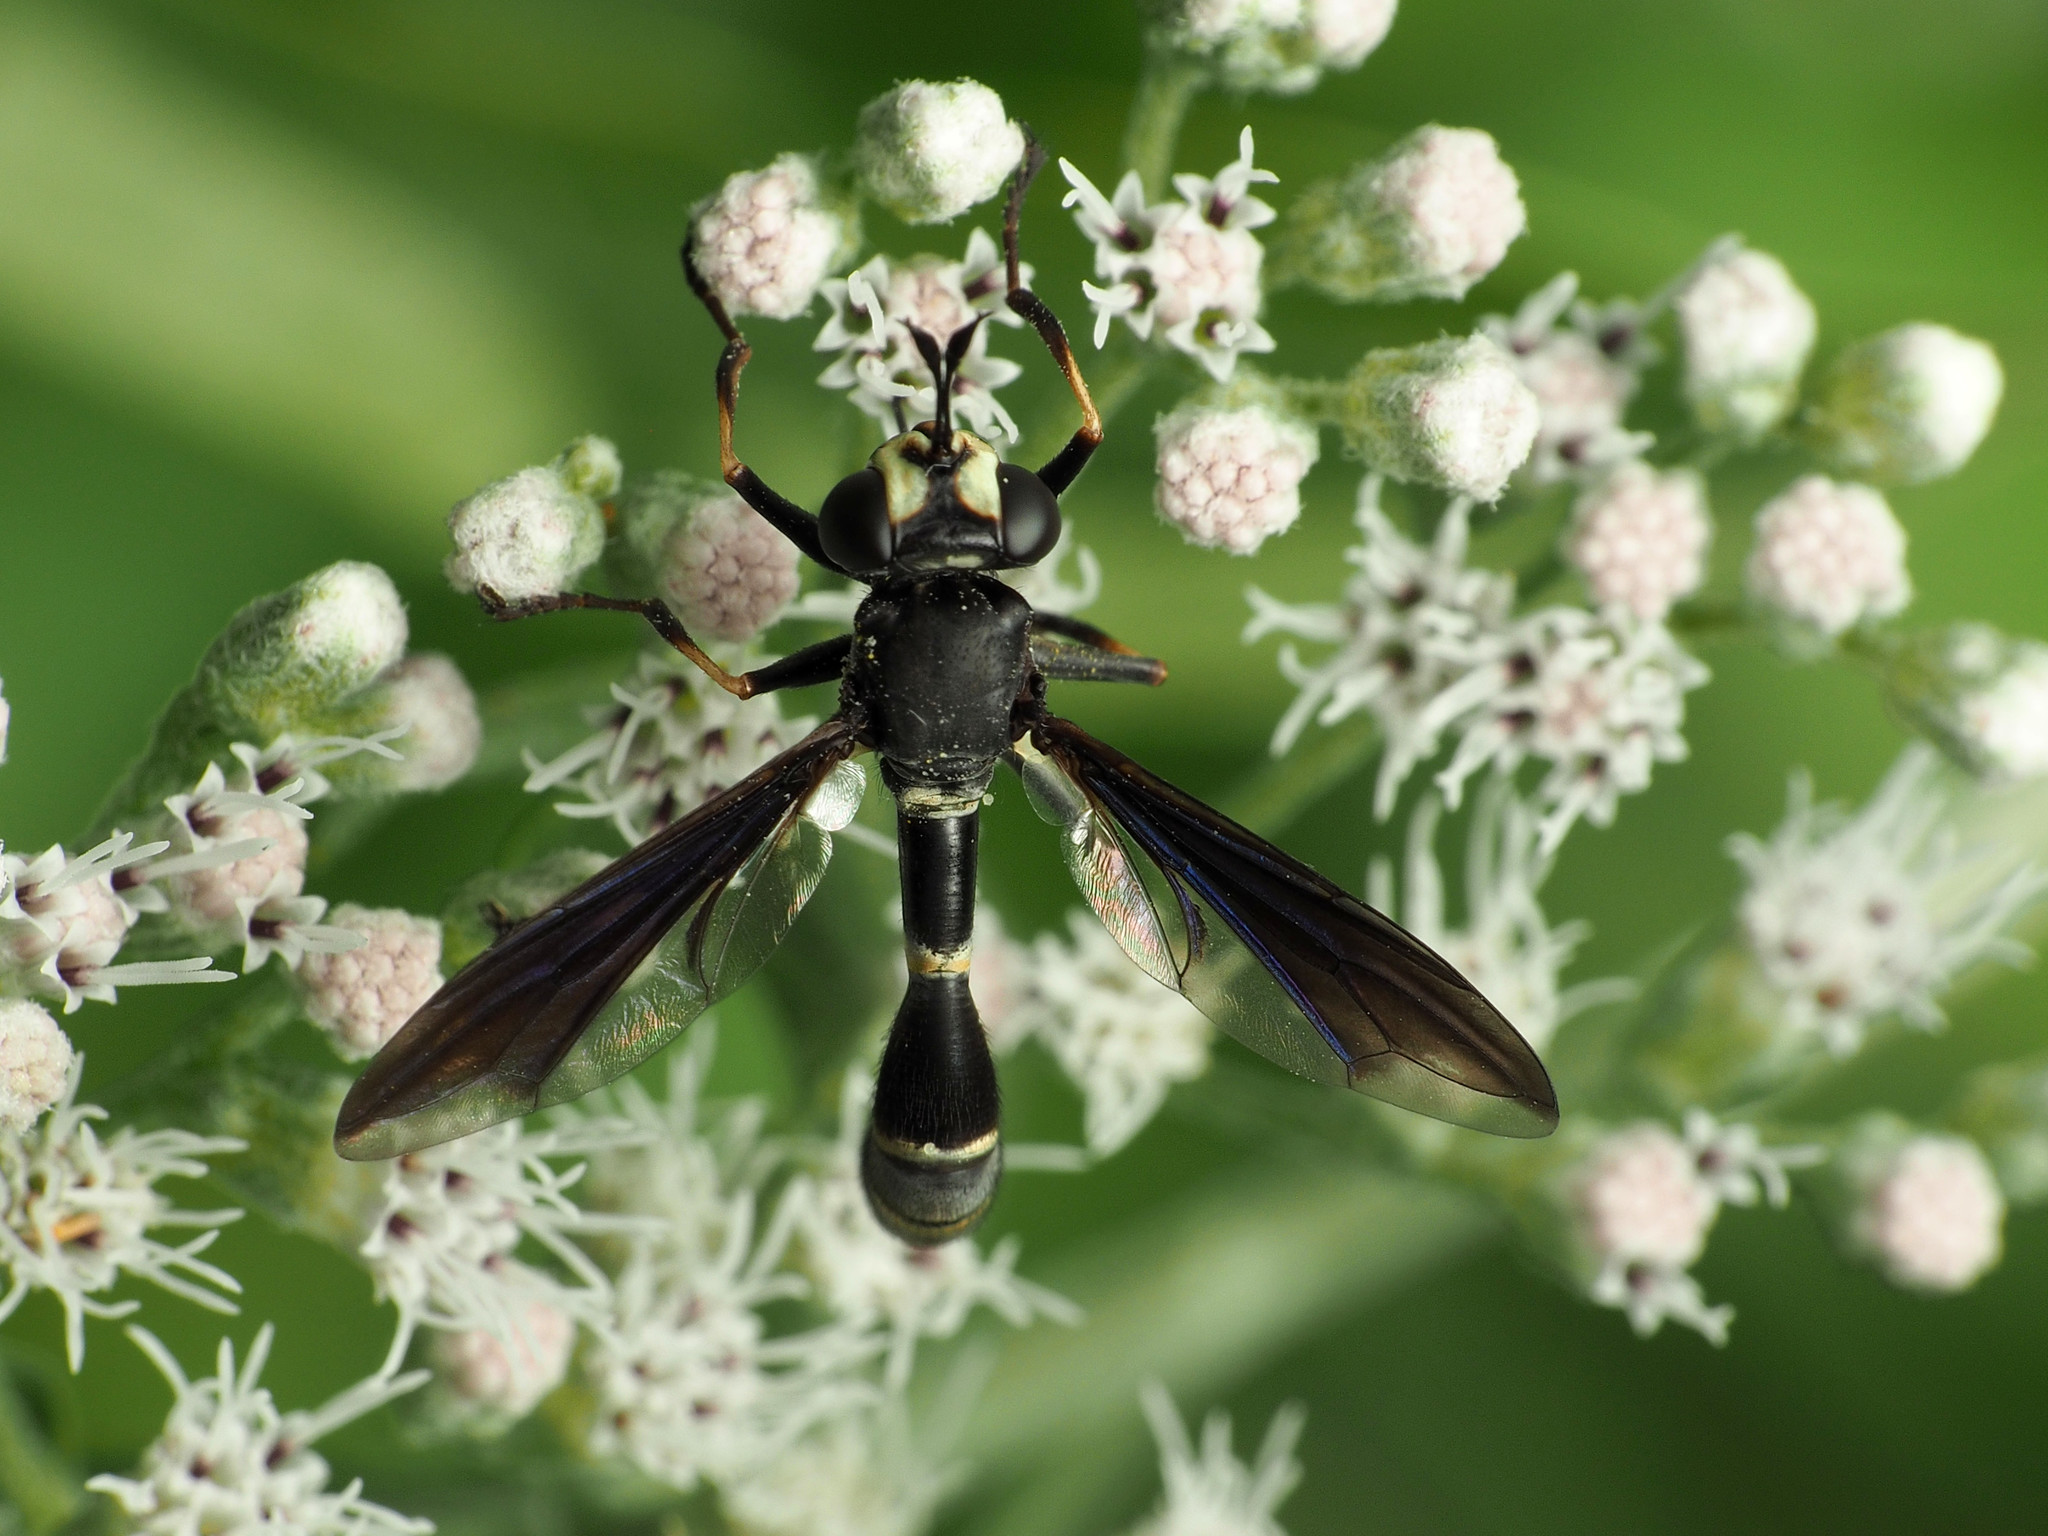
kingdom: Animalia
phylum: Arthropoda
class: Insecta
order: Diptera
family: Conopidae
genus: Physocephala
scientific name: Physocephala tibialis
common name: Common eastern physocephala
